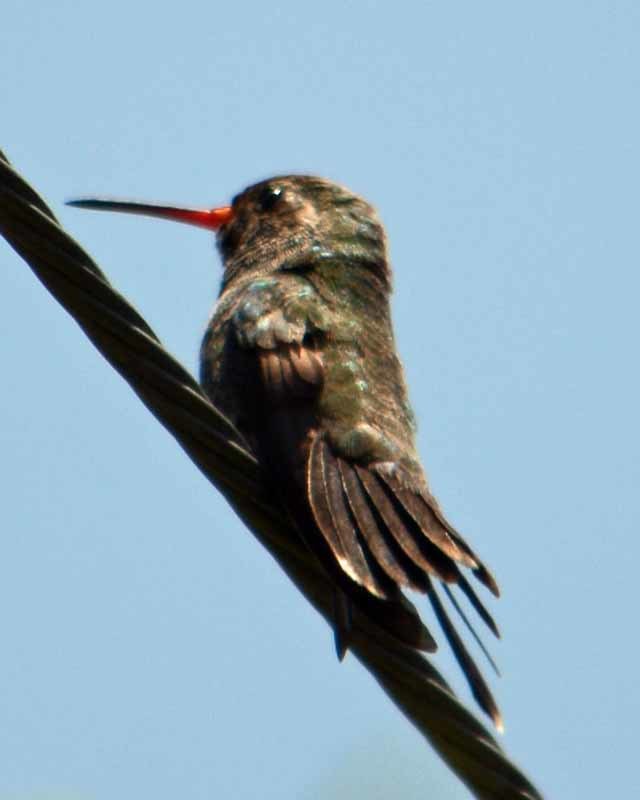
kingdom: Animalia
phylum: Chordata
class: Aves
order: Apodiformes
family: Trochilidae
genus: Cynanthus
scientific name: Cynanthus latirostris
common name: Broad-billed hummingbird
